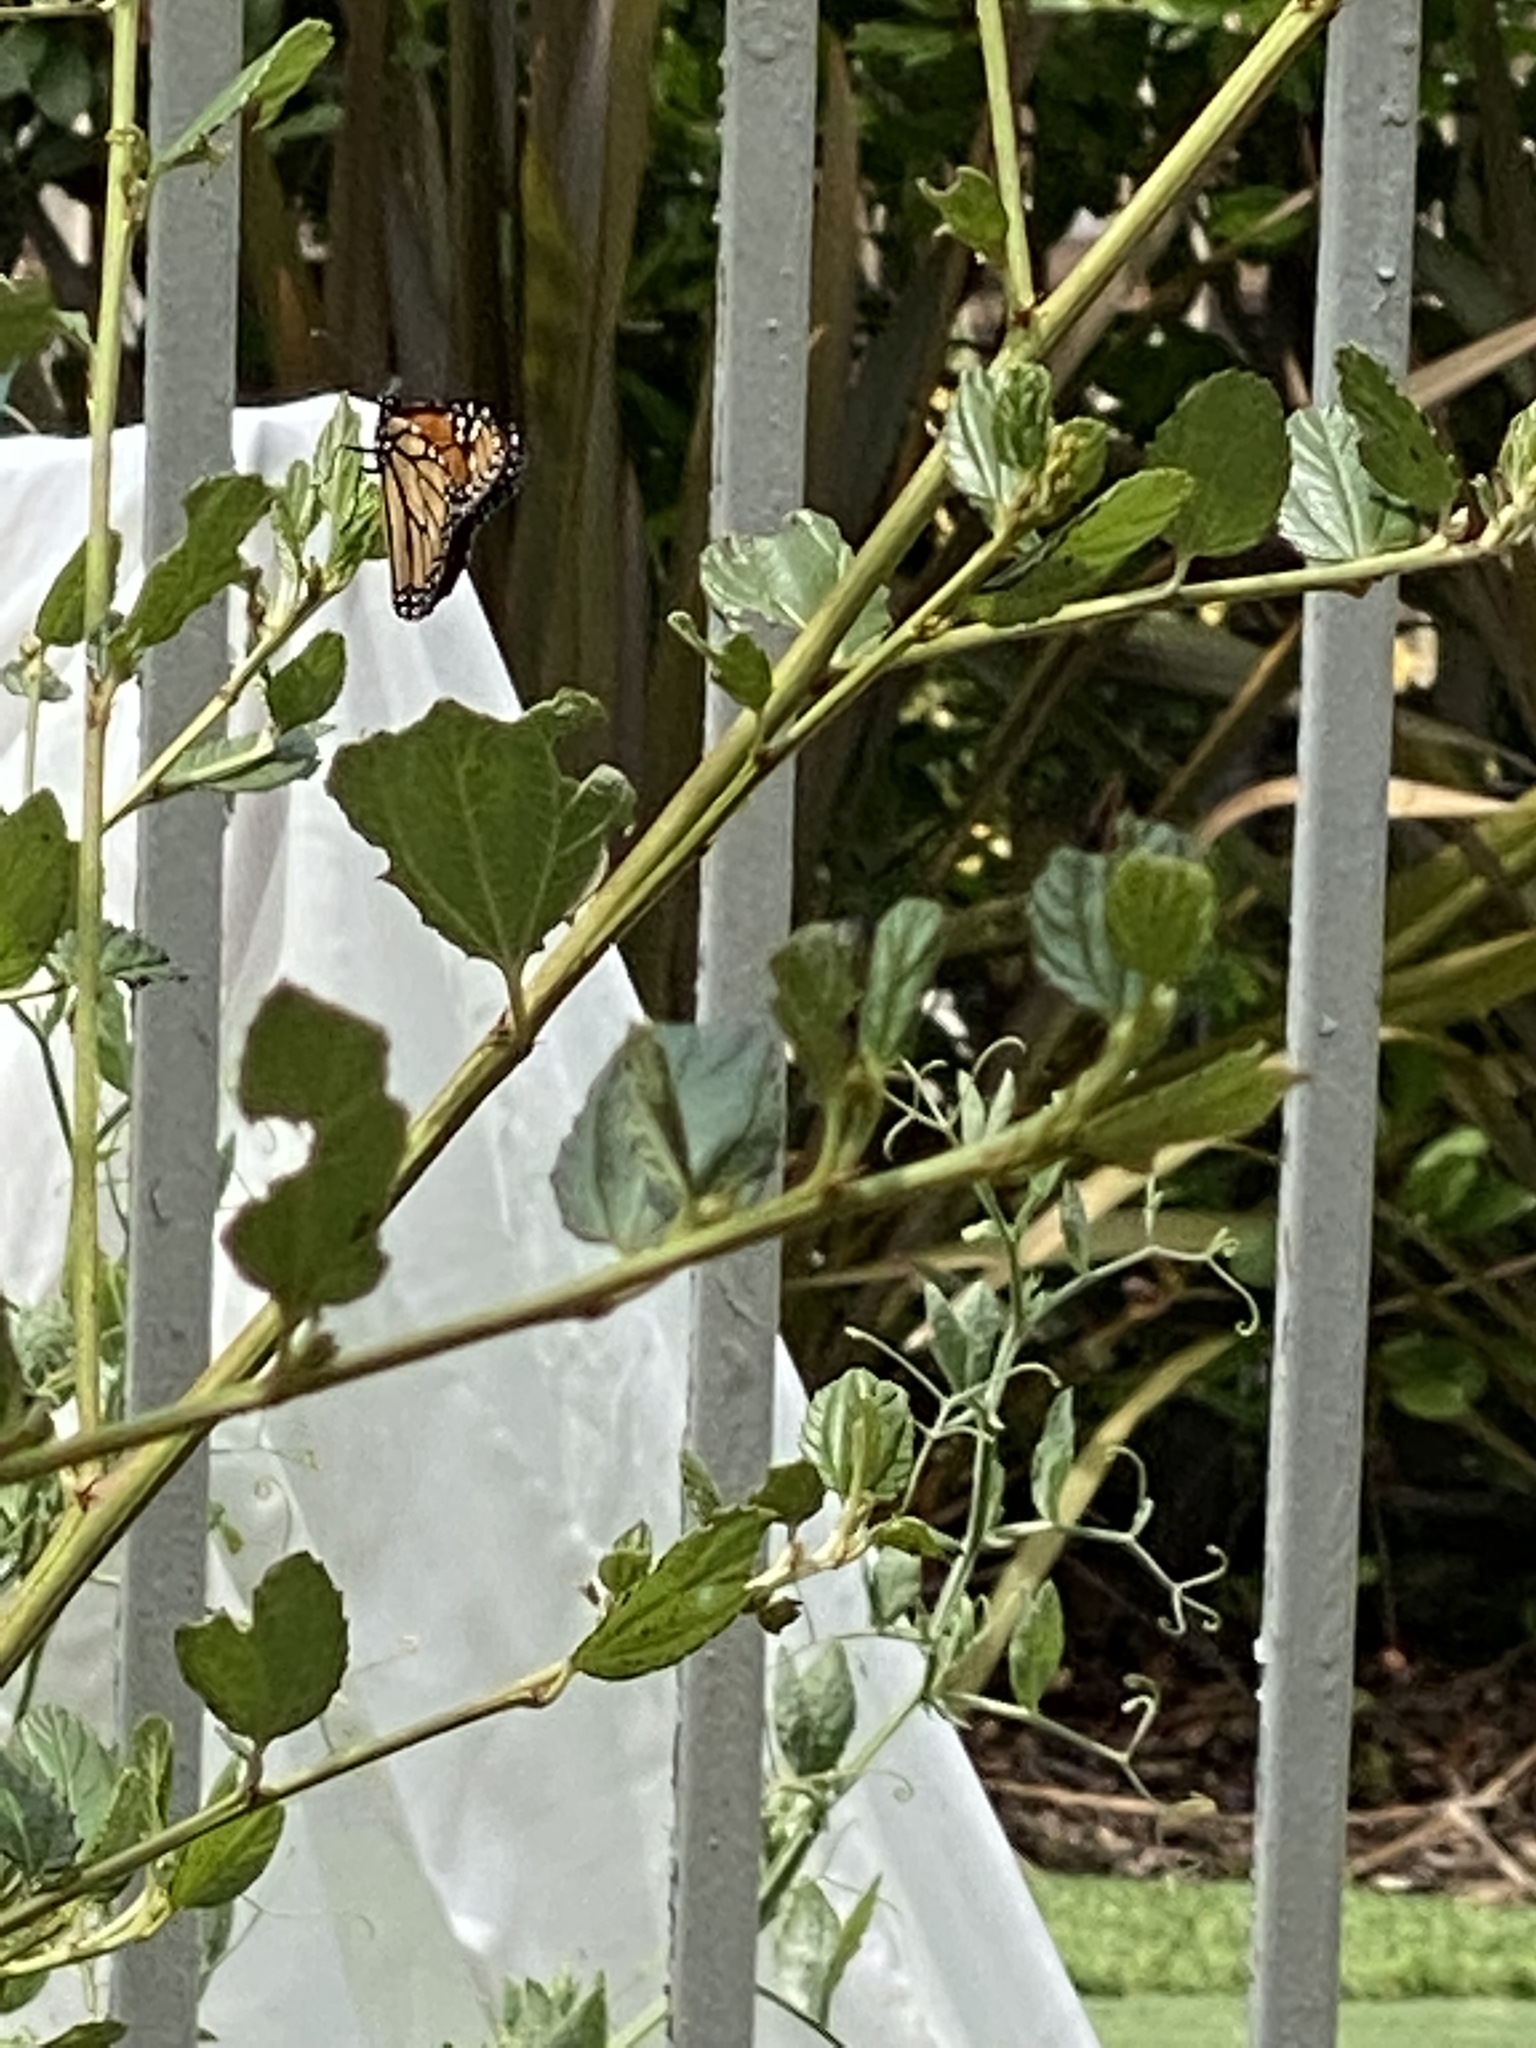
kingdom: Animalia
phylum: Arthropoda
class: Insecta
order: Lepidoptera
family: Nymphalidae
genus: Danaus
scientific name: Danaus plexippus
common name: Monarch
